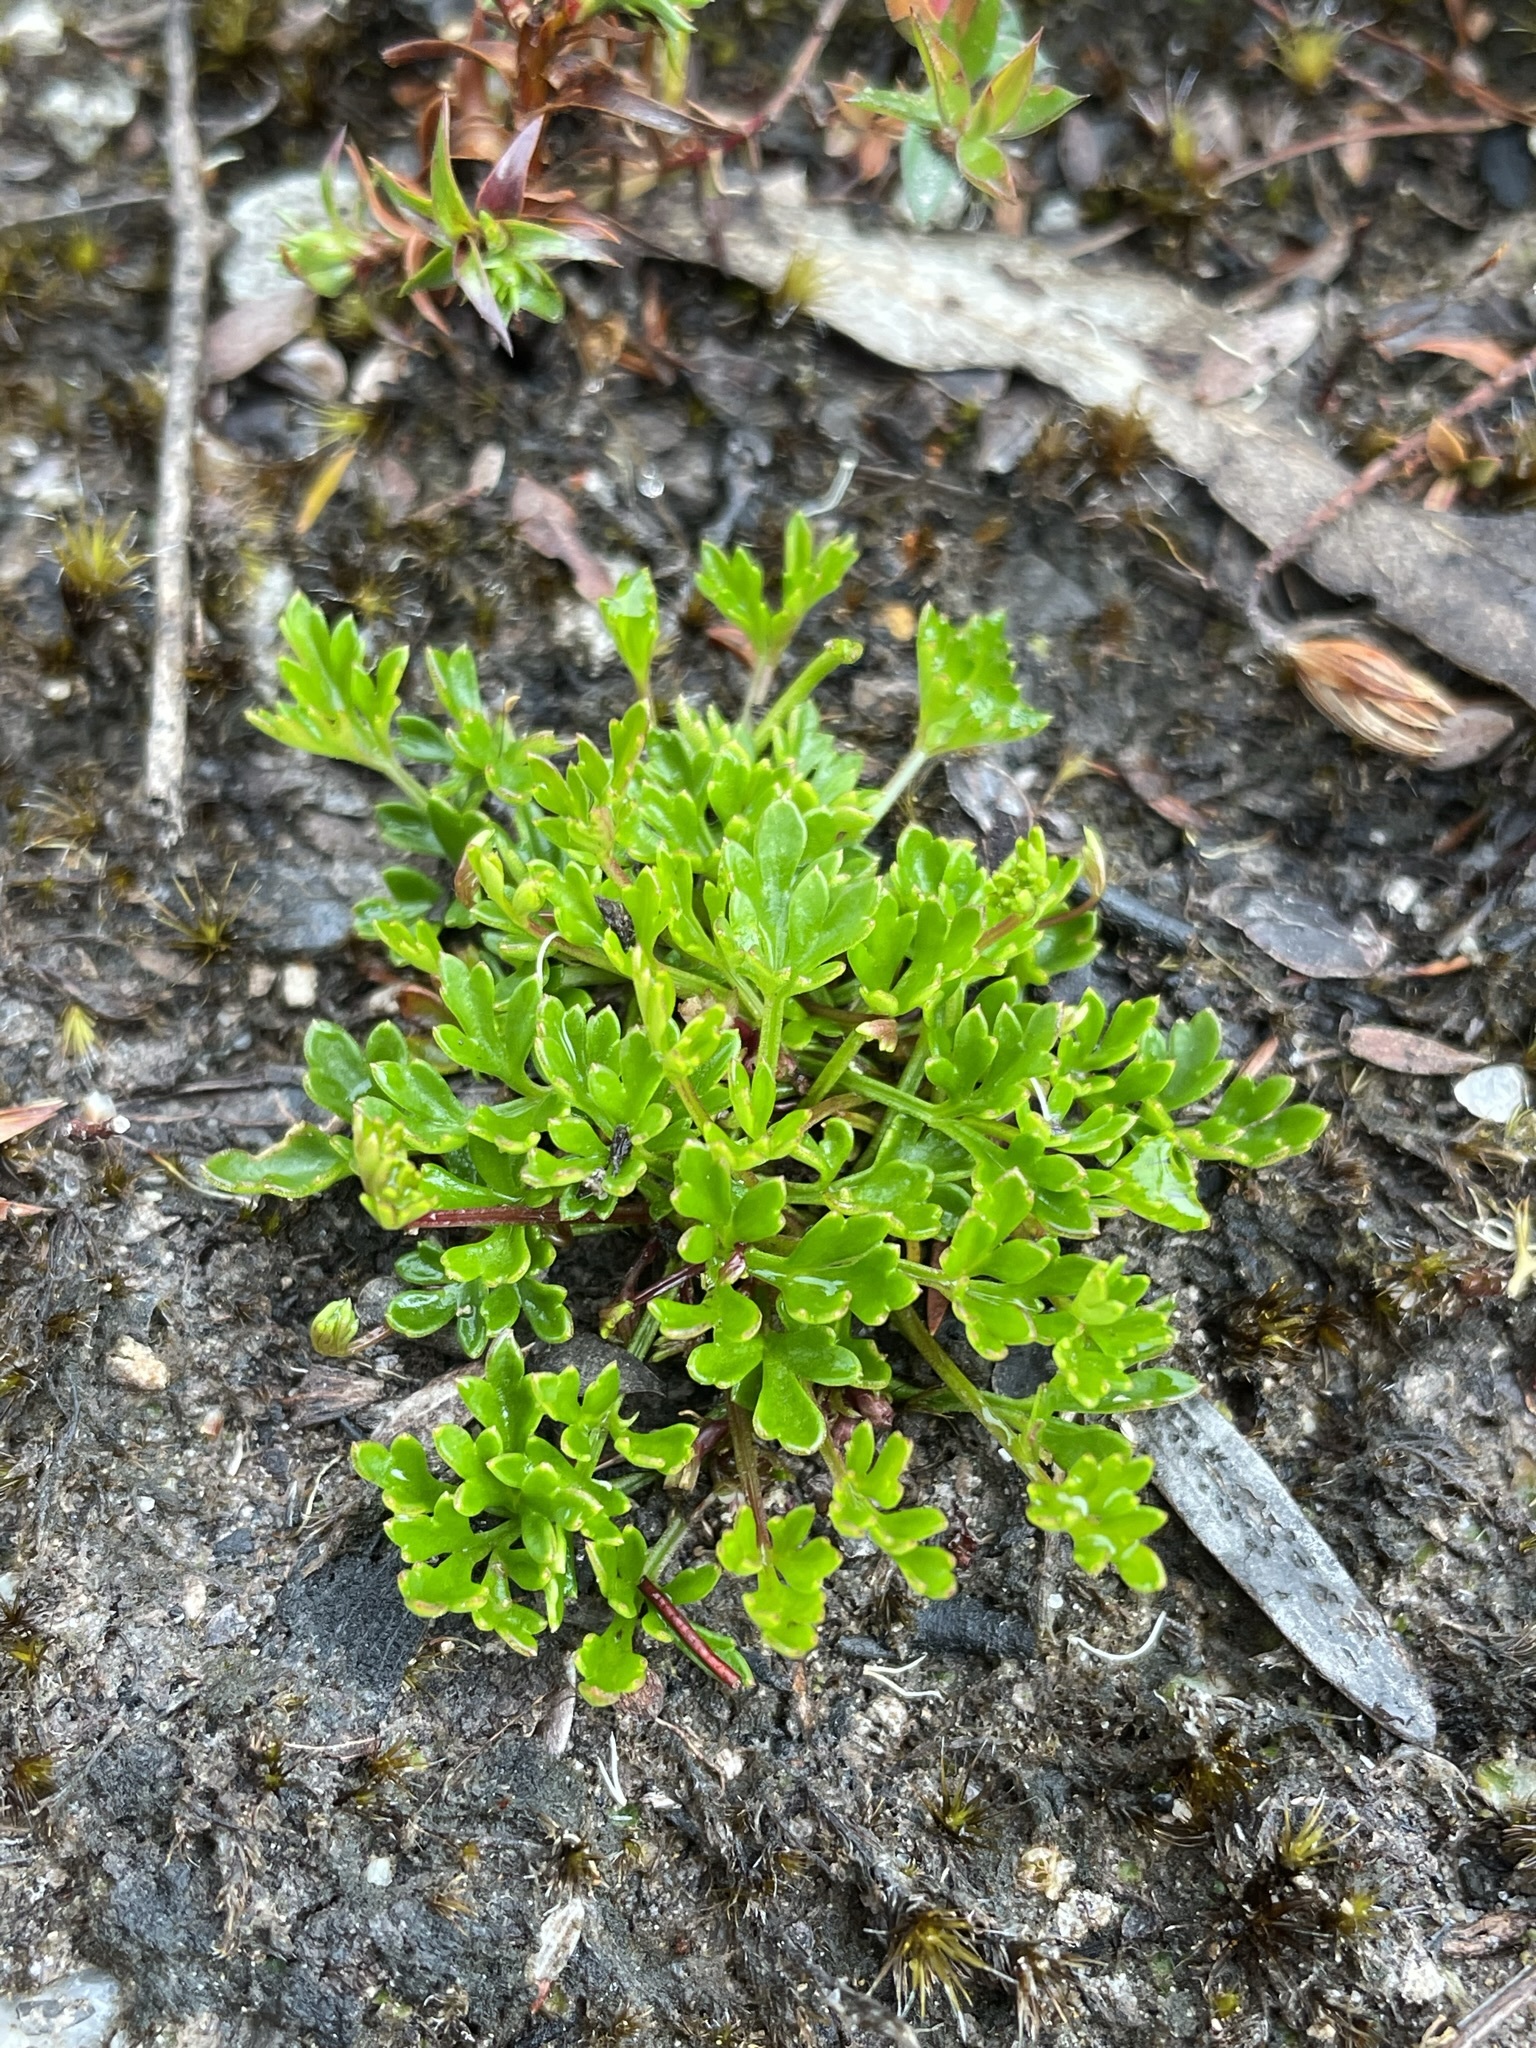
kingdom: Plantae
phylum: Tracheophyta
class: Magnoliopsida
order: Apiales
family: Apiaceae
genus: Xanthosia
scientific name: Xanthosia dissecta
